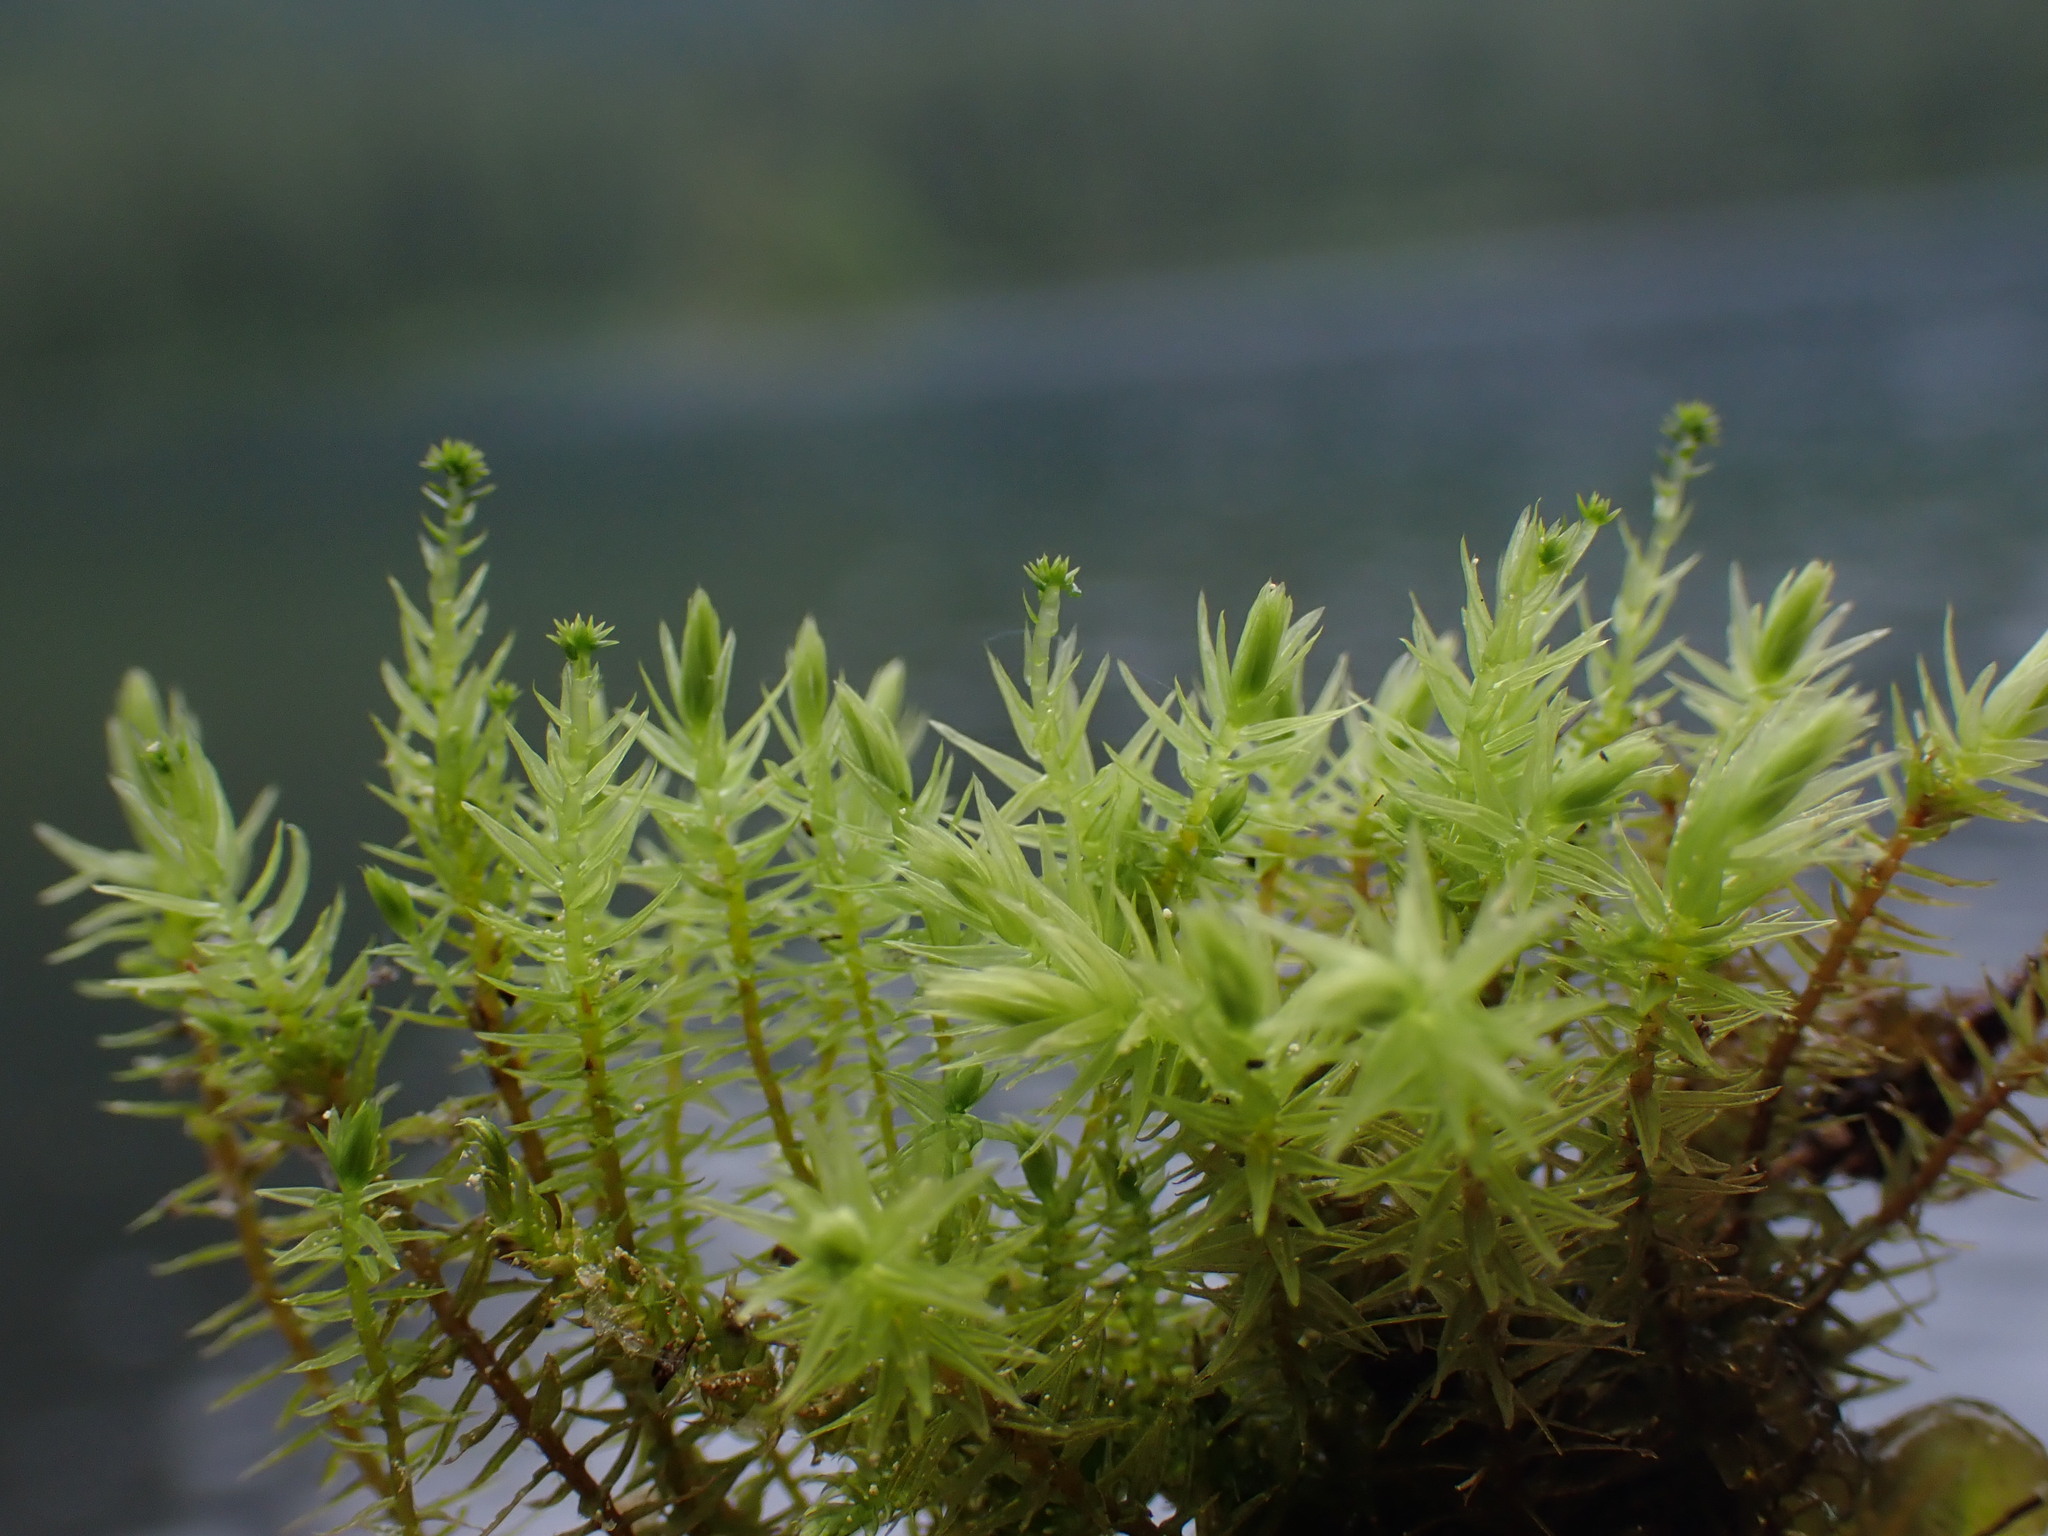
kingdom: Plantae
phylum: Bryophyta
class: Bryopsida
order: Aulacomniales
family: Aulacomniaceae
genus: Aulacomnium
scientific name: Aulacomnium palustre
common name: Bog groove-moss
